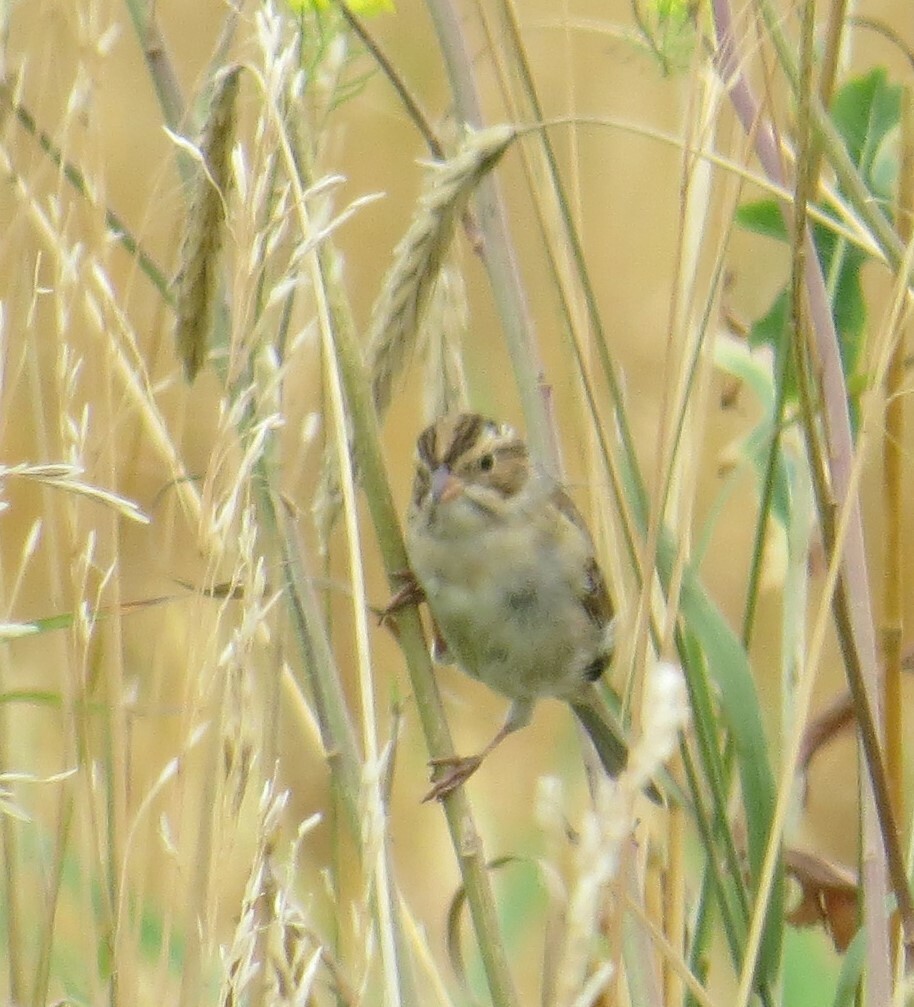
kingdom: Animalia
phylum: Chordata
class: Aves
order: Passeriformes
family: Passerellidae
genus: Spizella
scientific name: Spizella pallida
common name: Clay-colored sparrow
